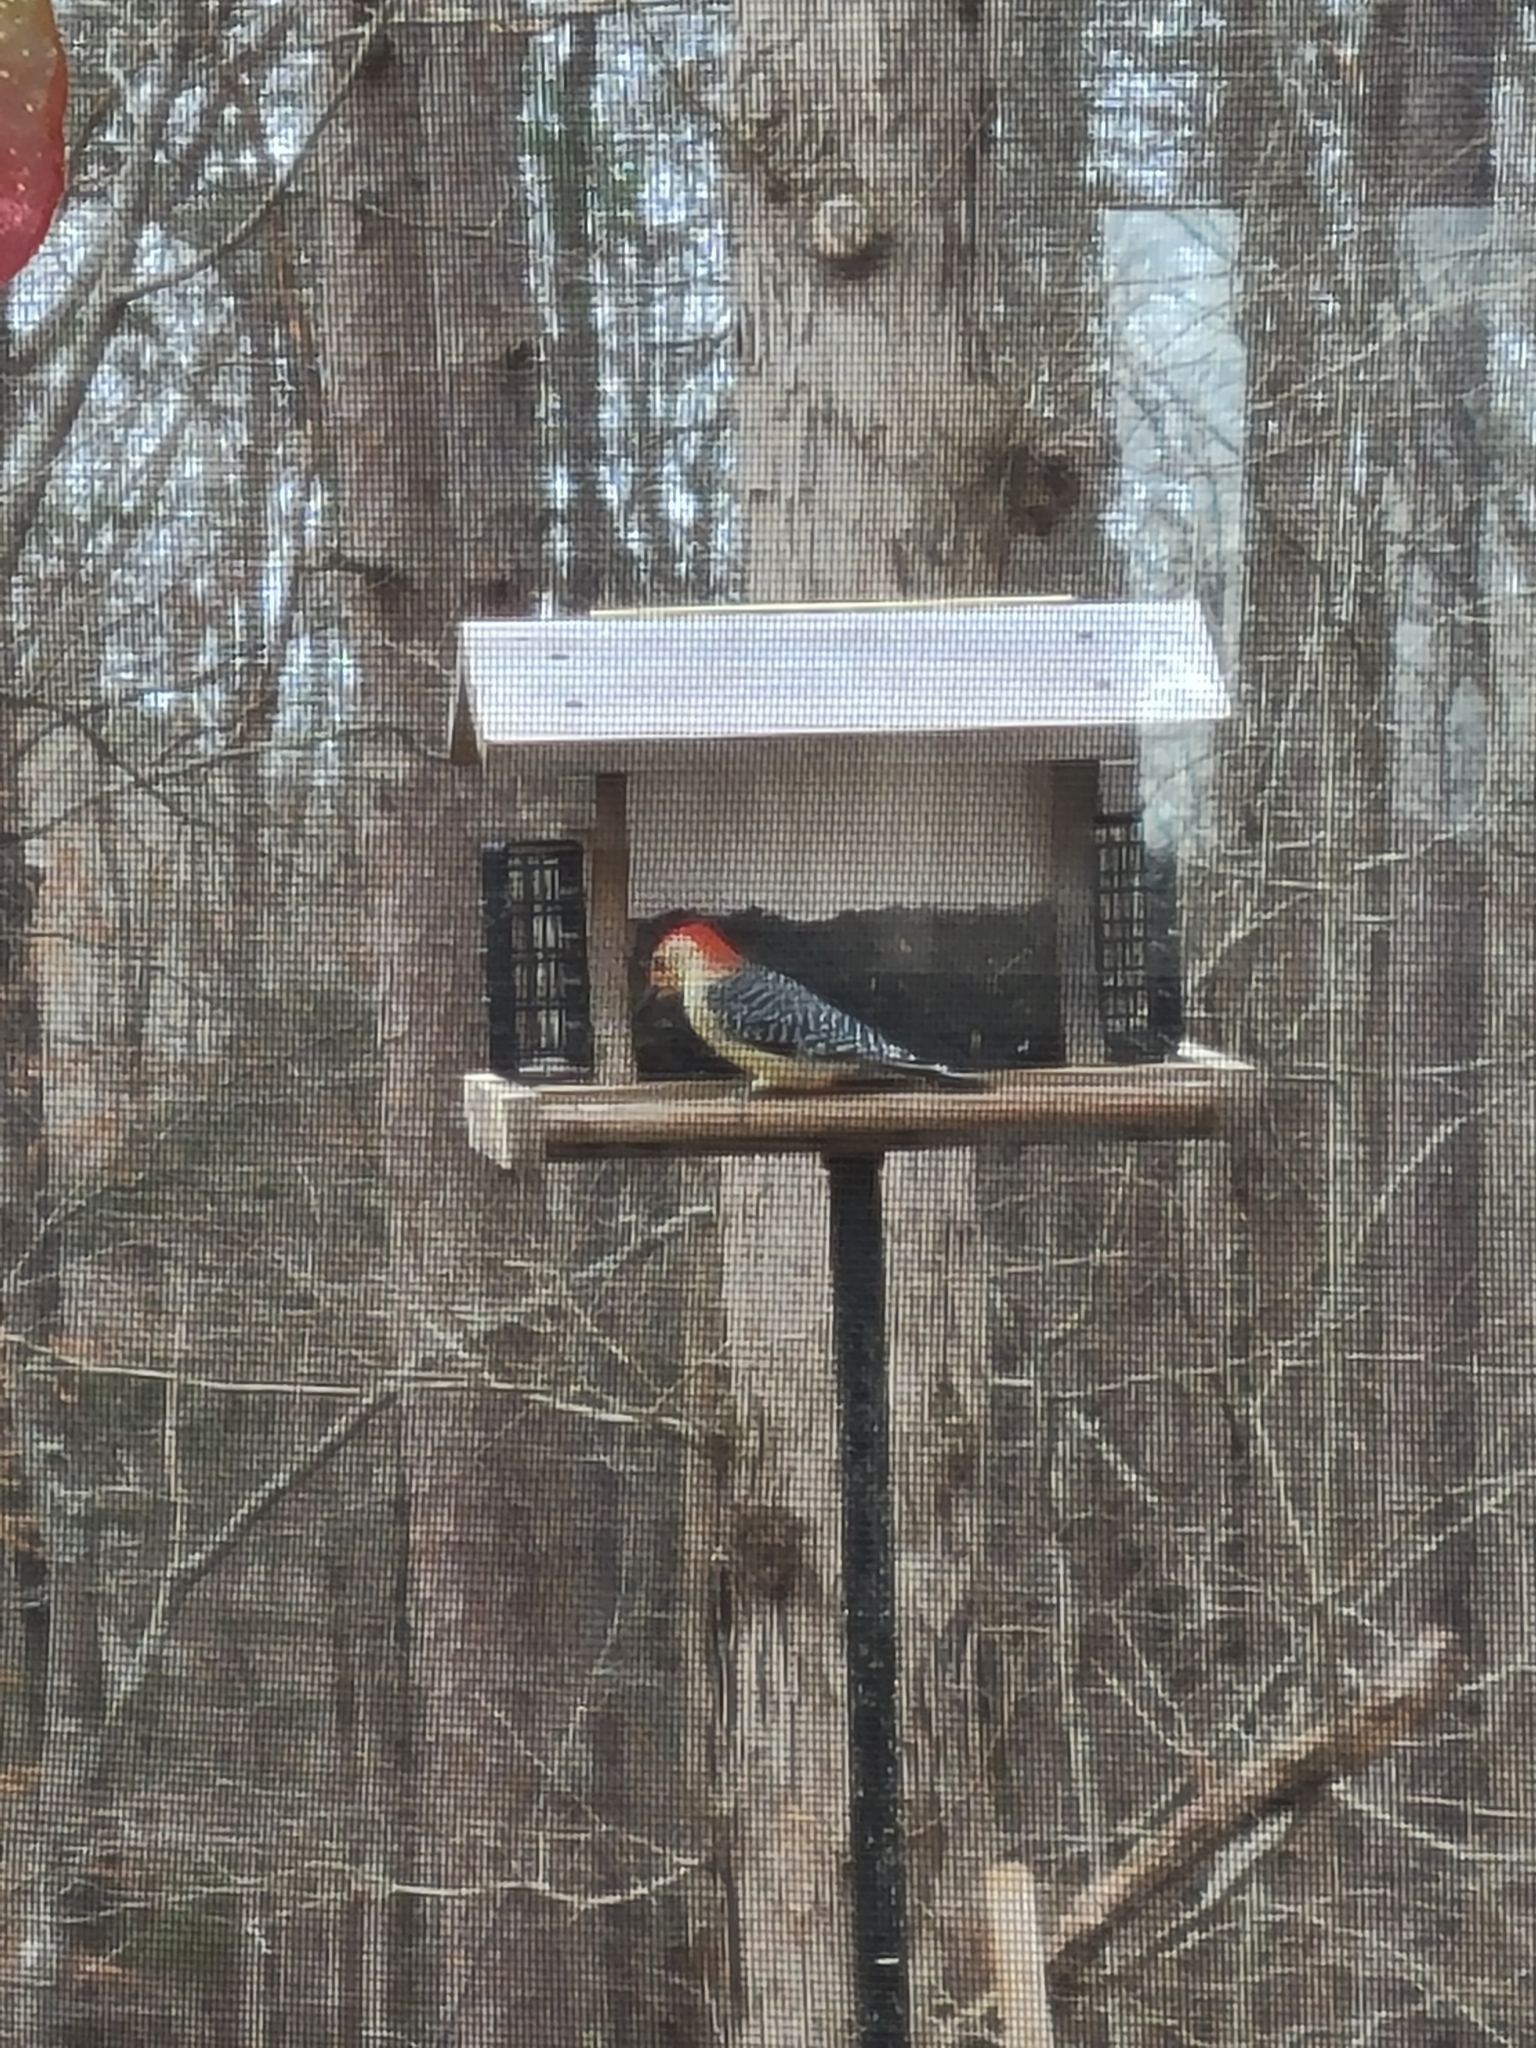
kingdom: Animalia
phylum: Chordata
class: Aves
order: Piciformes
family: Picidae
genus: Melanerpes
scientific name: Melanerpes carolinus
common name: Red-bellied woodpecker
